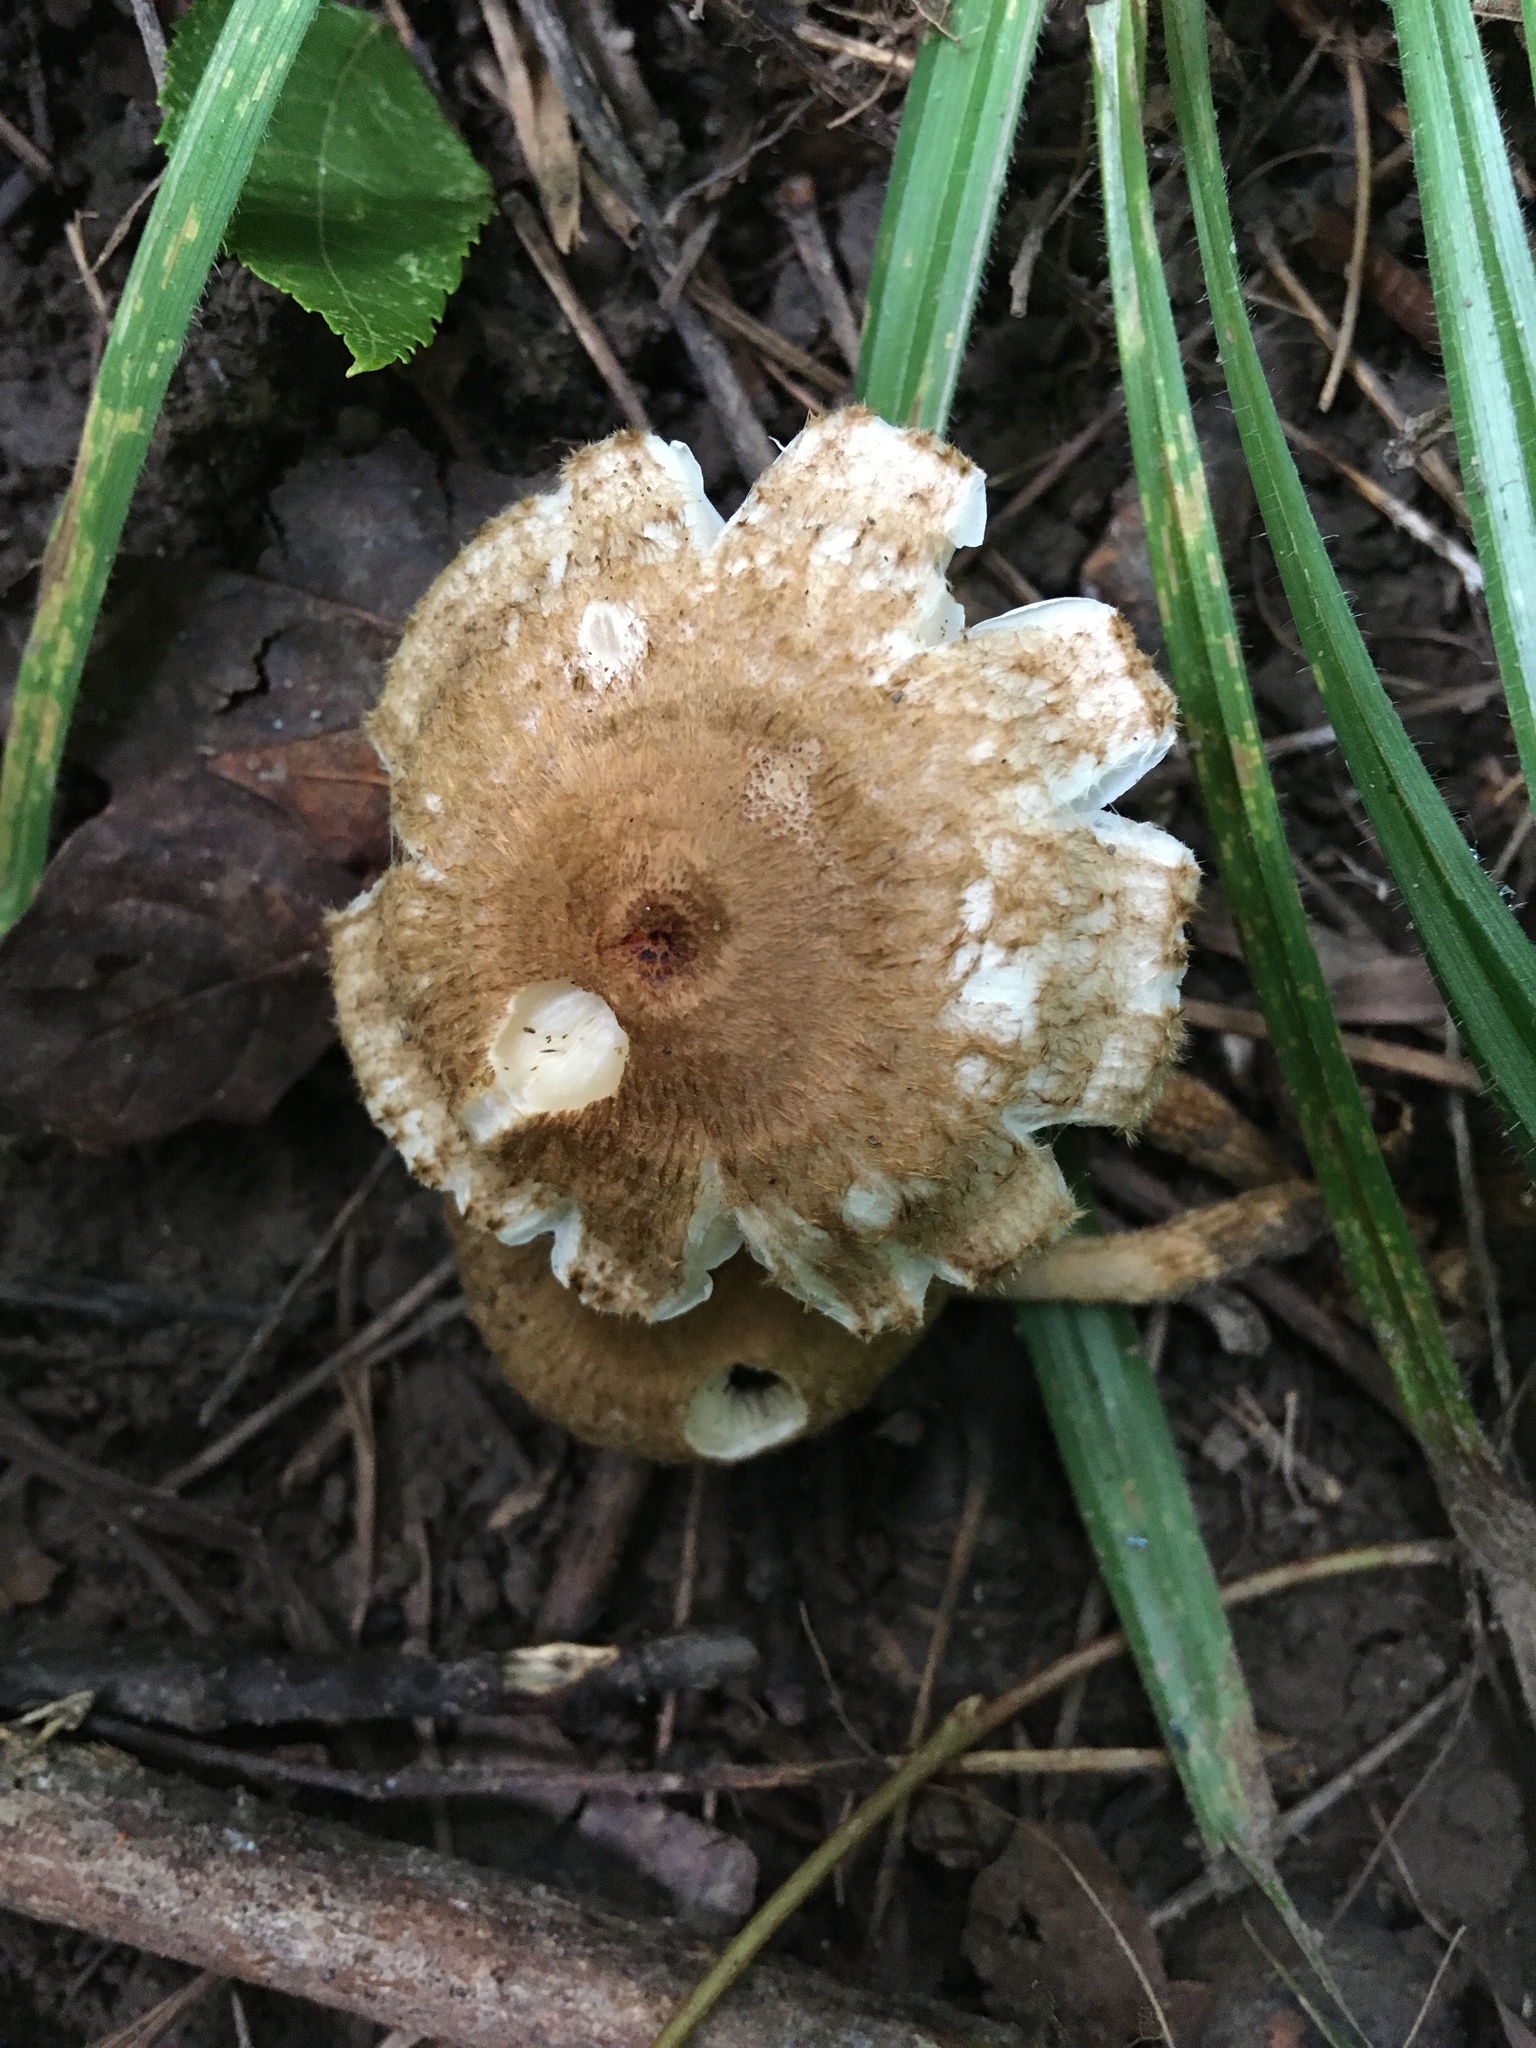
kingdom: Fungi
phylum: Basidiomycota
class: Agaricomycetes
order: Agaricales
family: Tricholomataceae
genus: Collybia
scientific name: Collybia zonata
